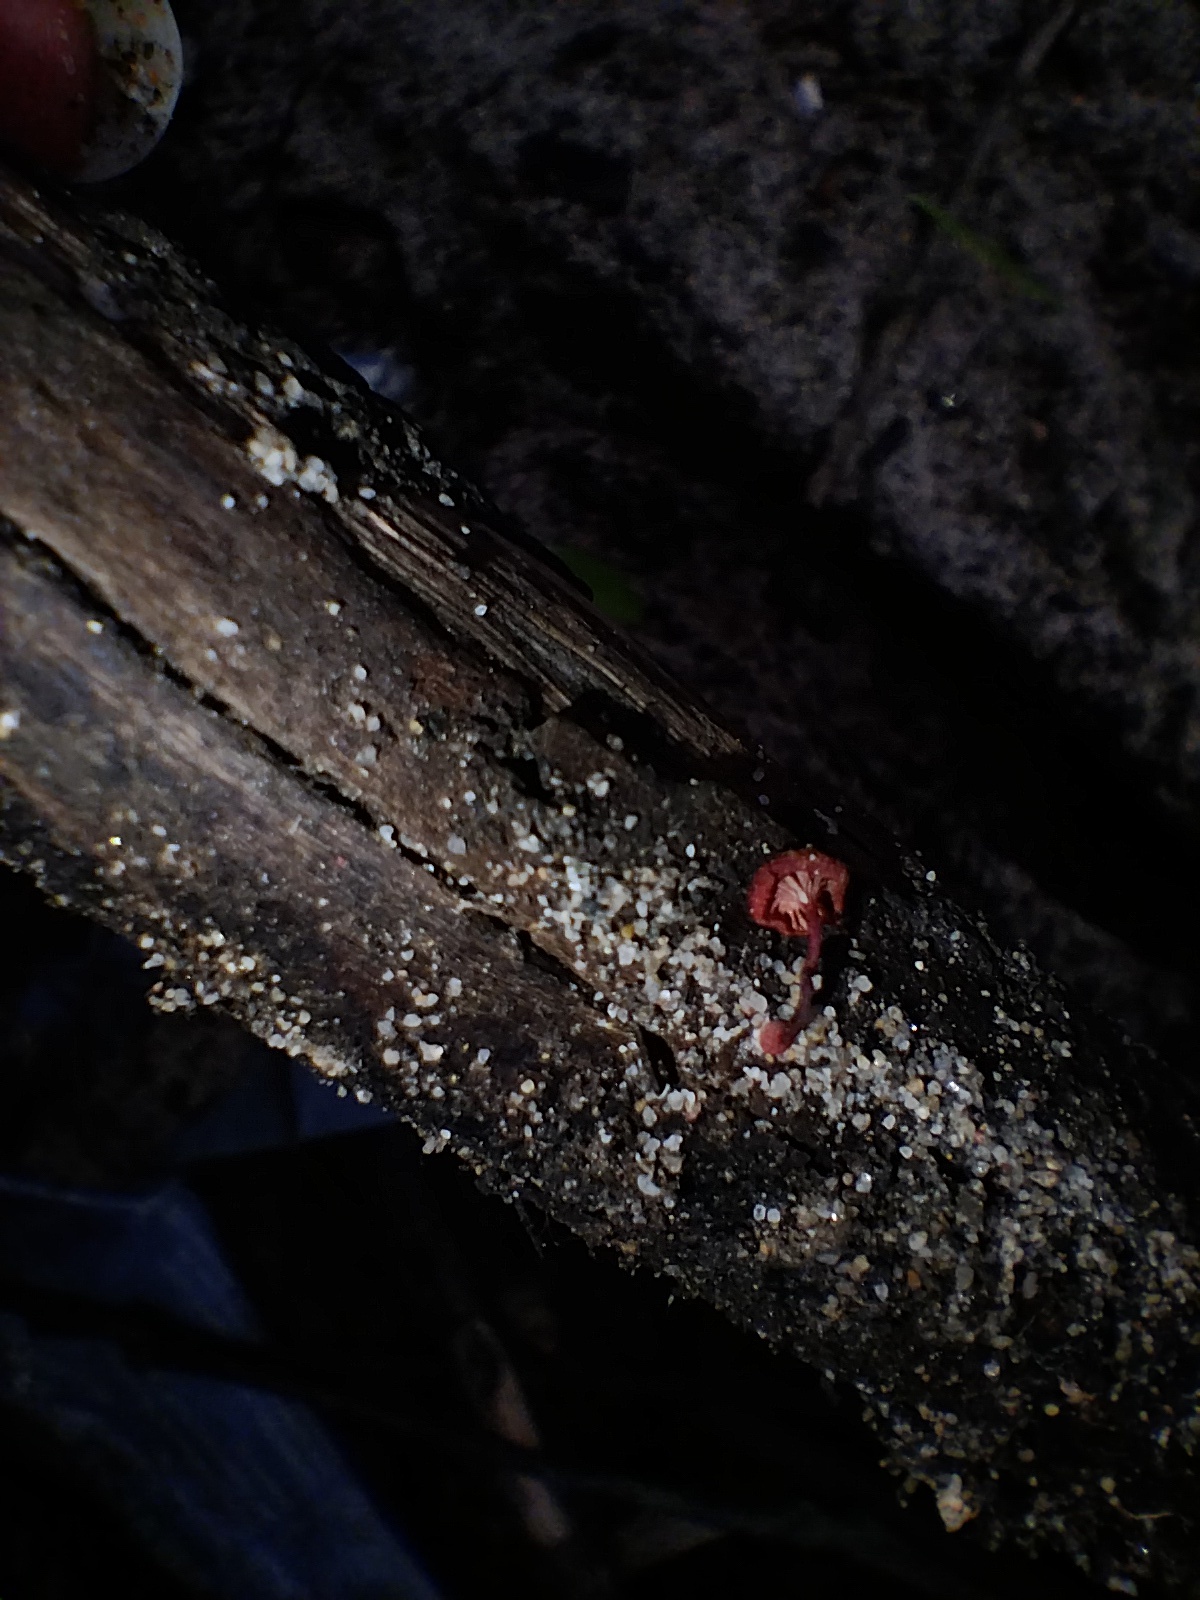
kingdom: Fungi
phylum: Basidiomycota
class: Agaricomycetes
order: Agaricales
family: Mycenaceae
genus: Cruentomycena
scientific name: Cruentomycena viscidocruenta
